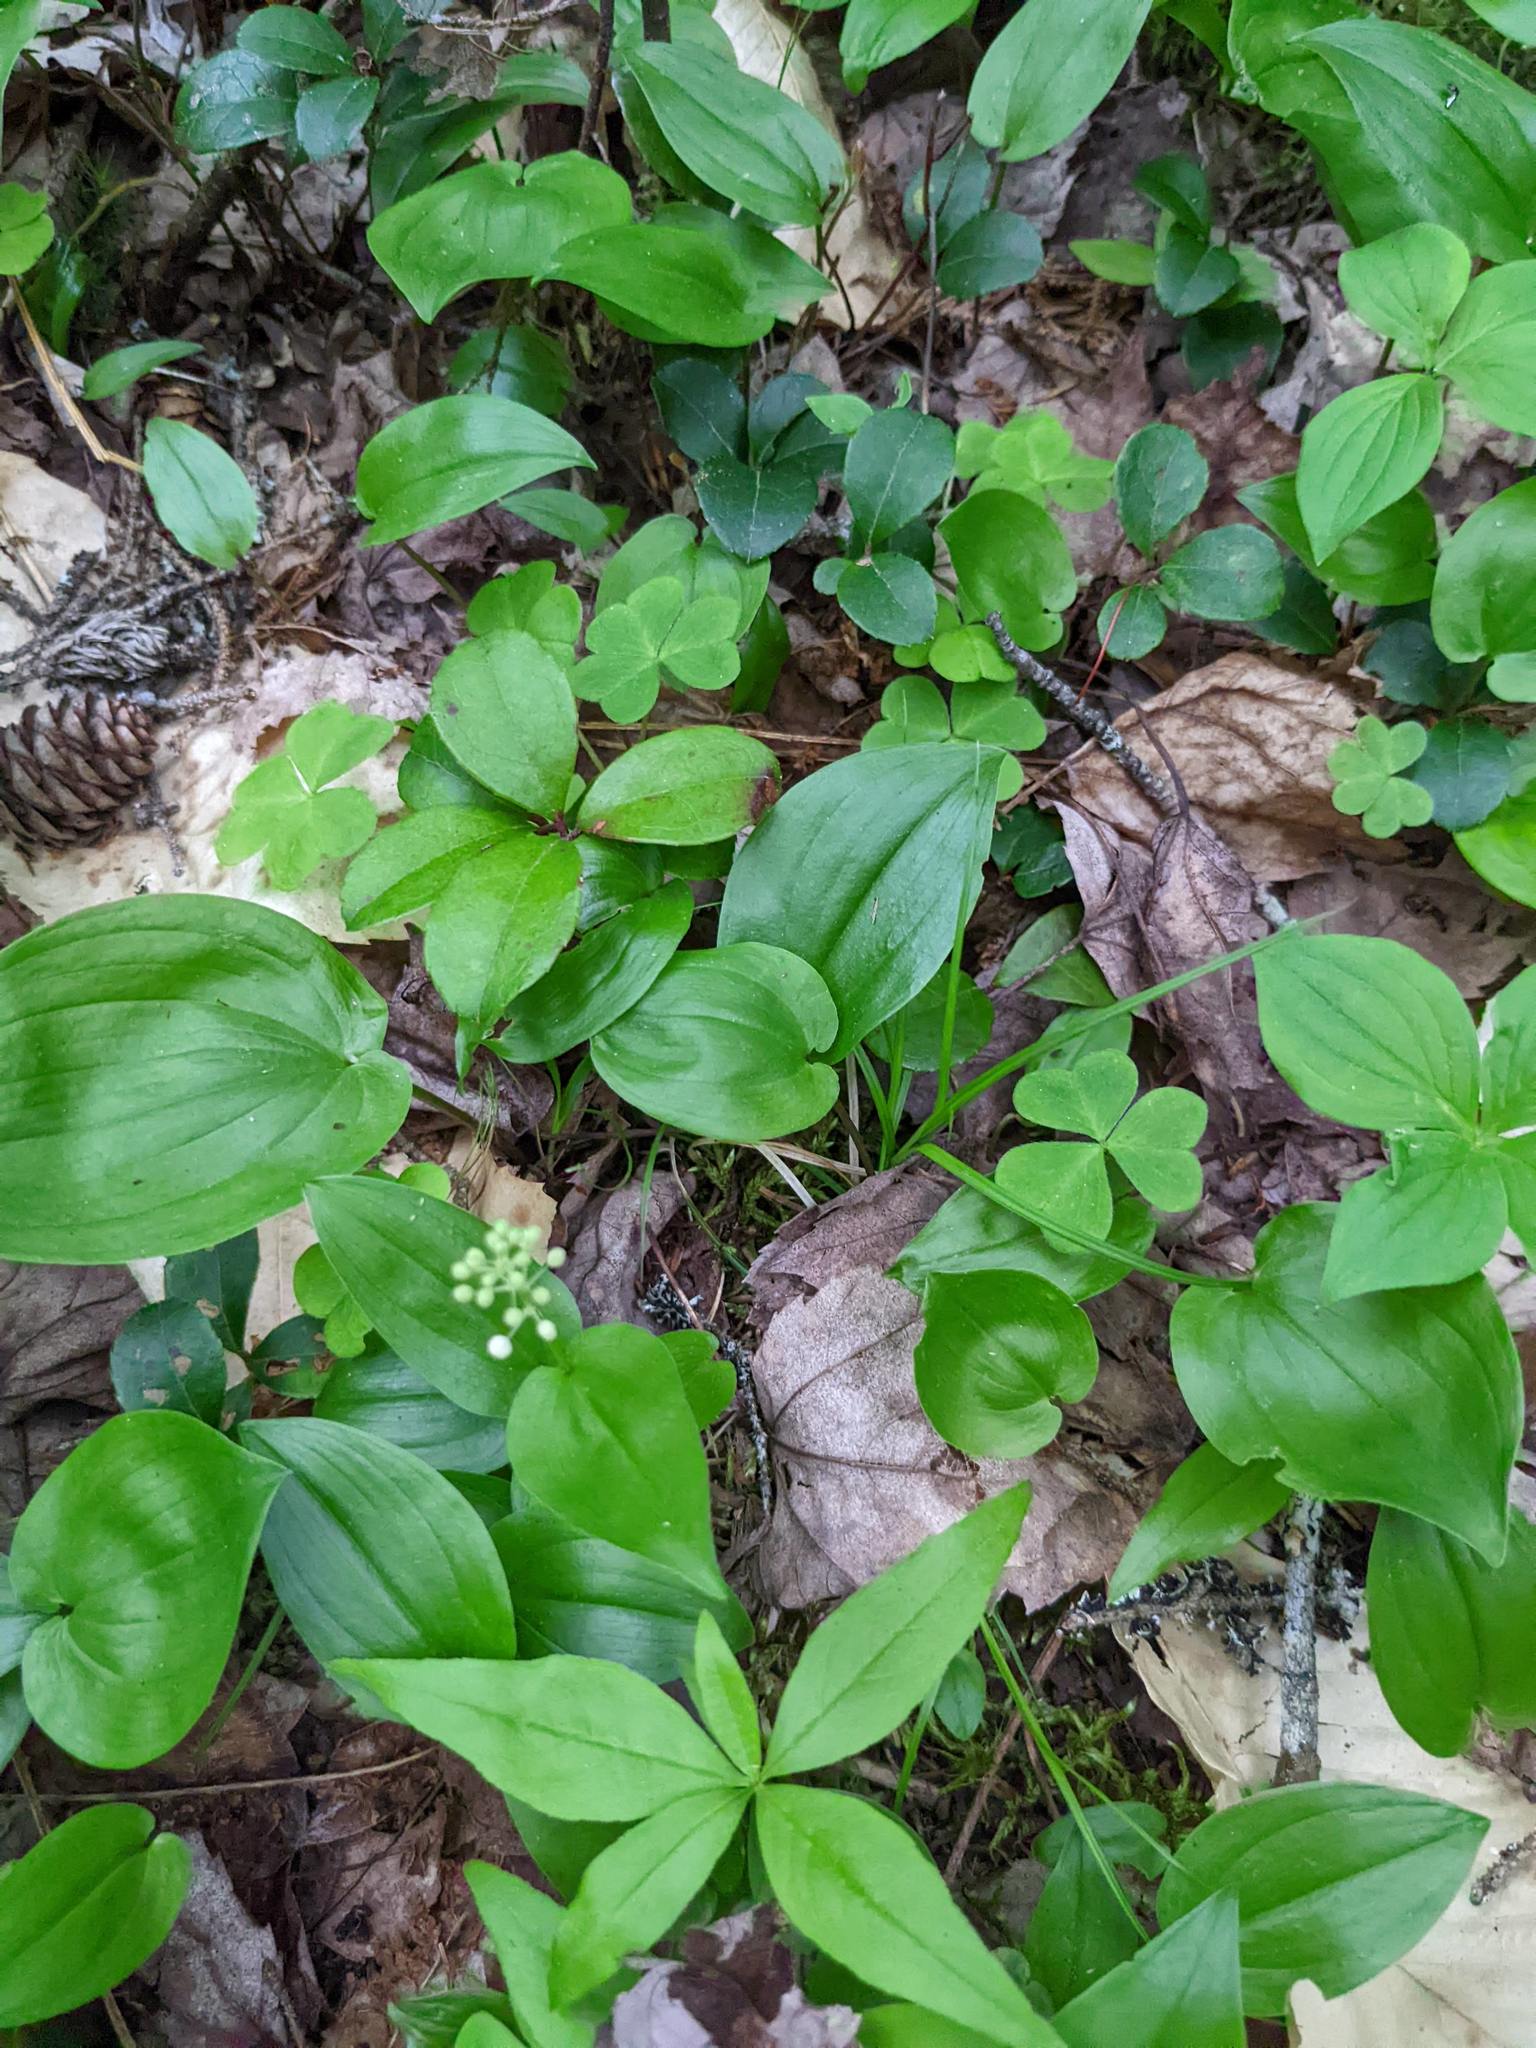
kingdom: Plantae
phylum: Tracheophyta
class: Liliopsida
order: Asparagales
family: Asparagaceae
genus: Maianthemum
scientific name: Maianthemum canadense
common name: False lily-of-the-valley
